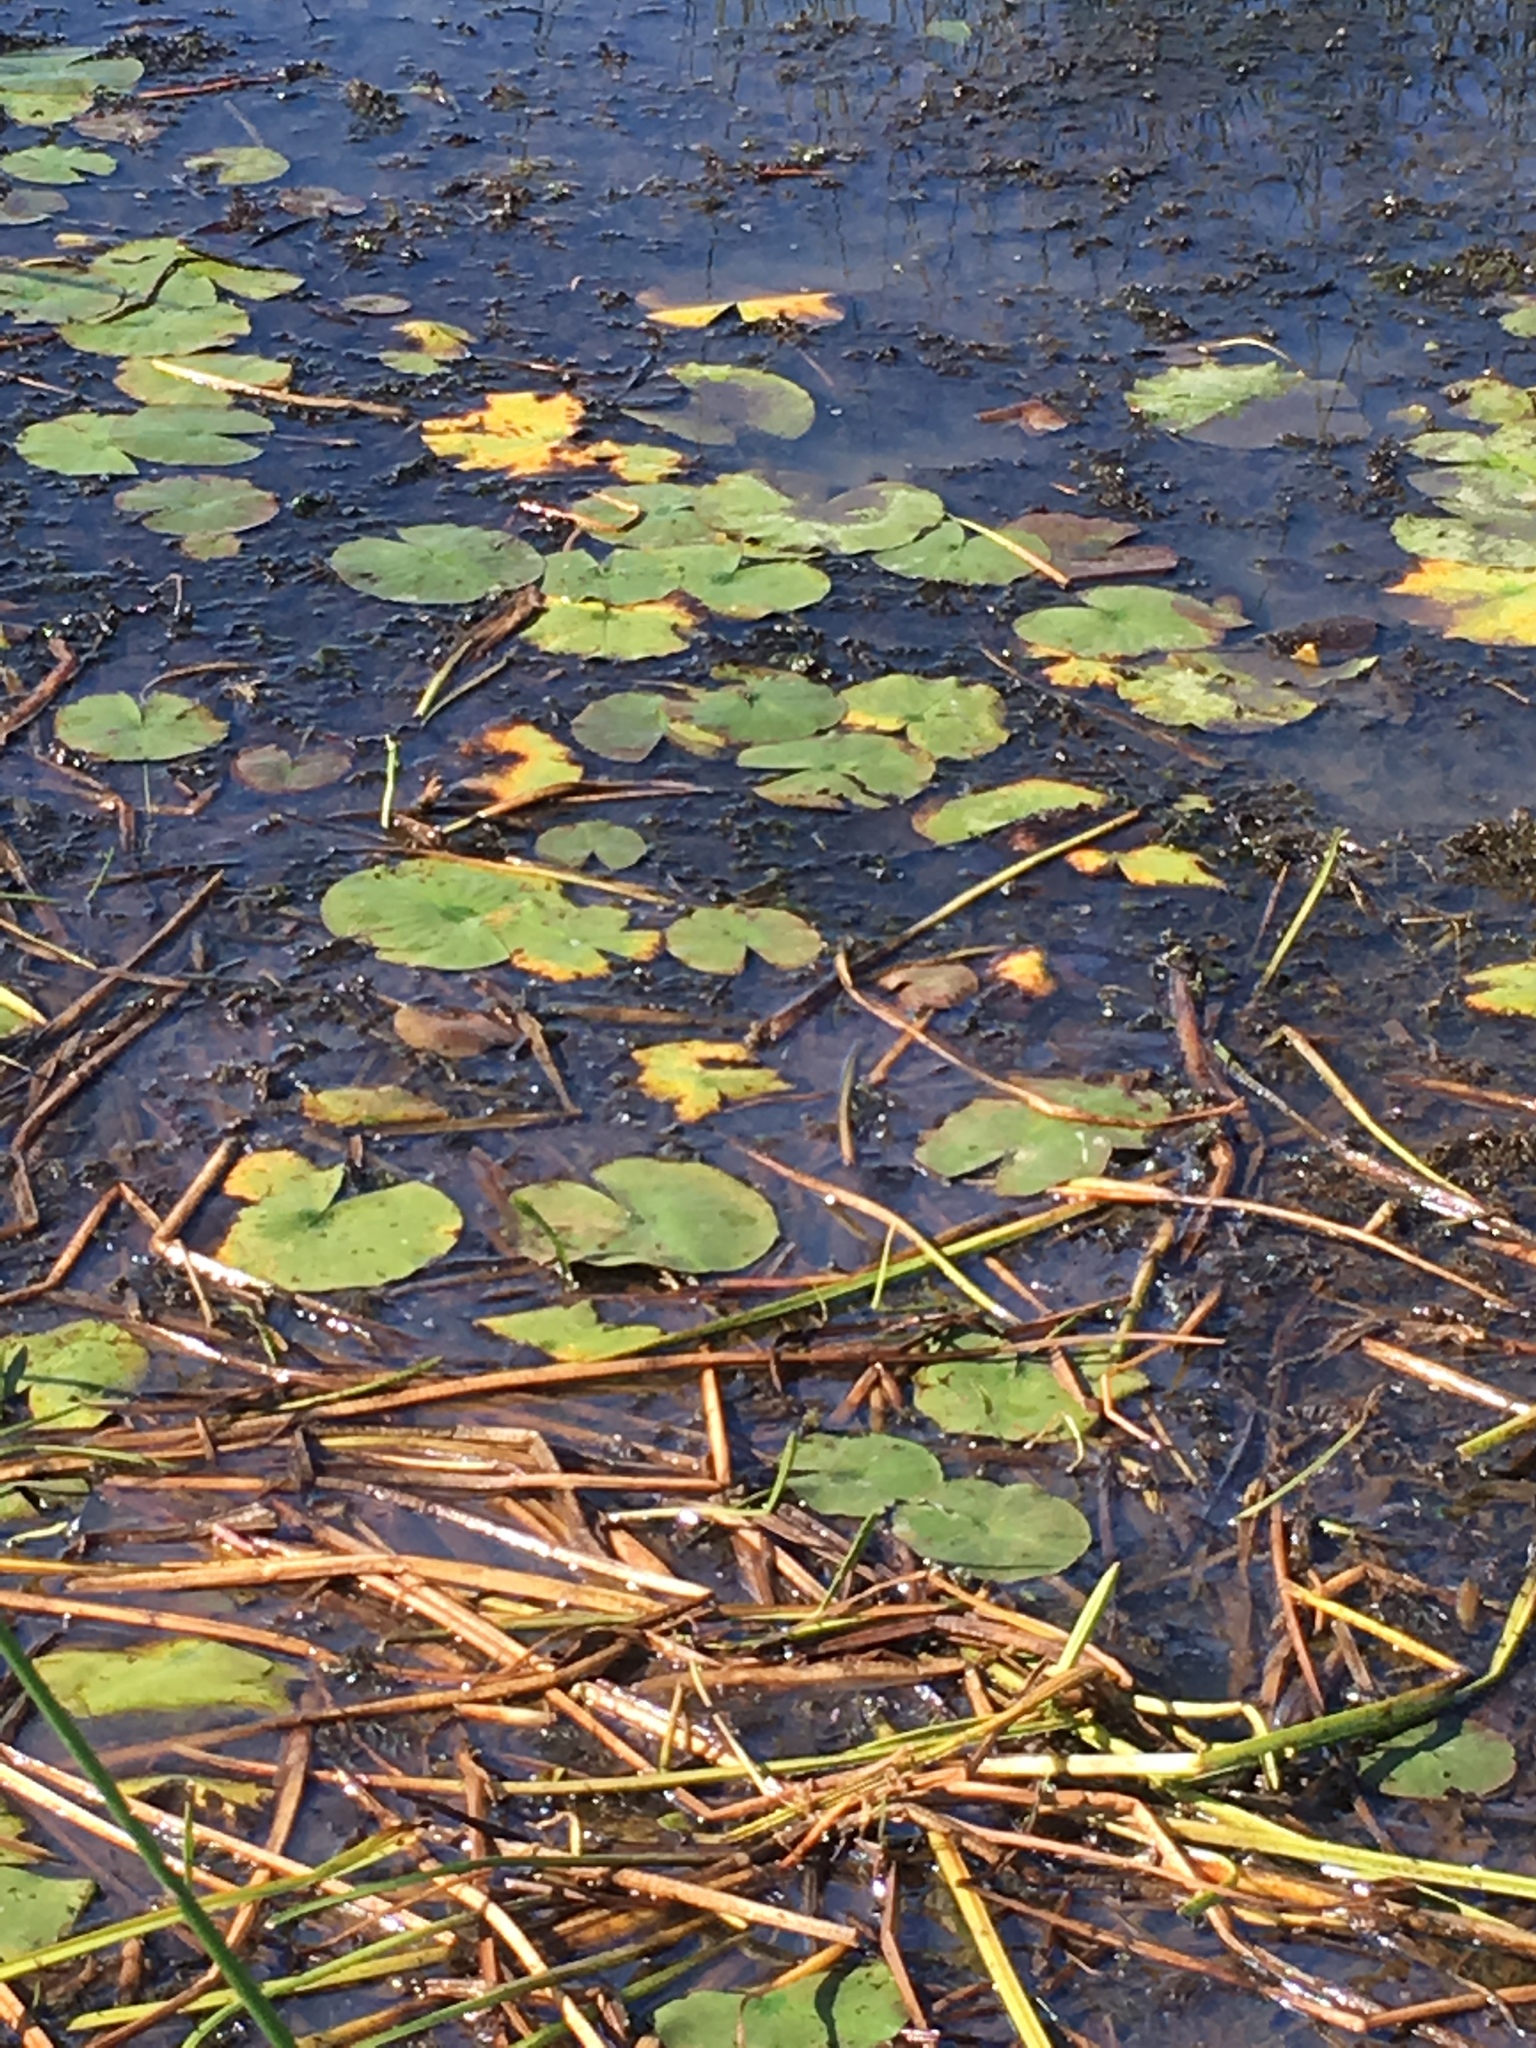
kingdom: Plantae
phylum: Tracheophyta
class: Magnoliopsida
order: Nymphaeales
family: Nymphaeaceae
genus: Nymphaea
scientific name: Nymphaea odorata
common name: Fragrant water-lily
